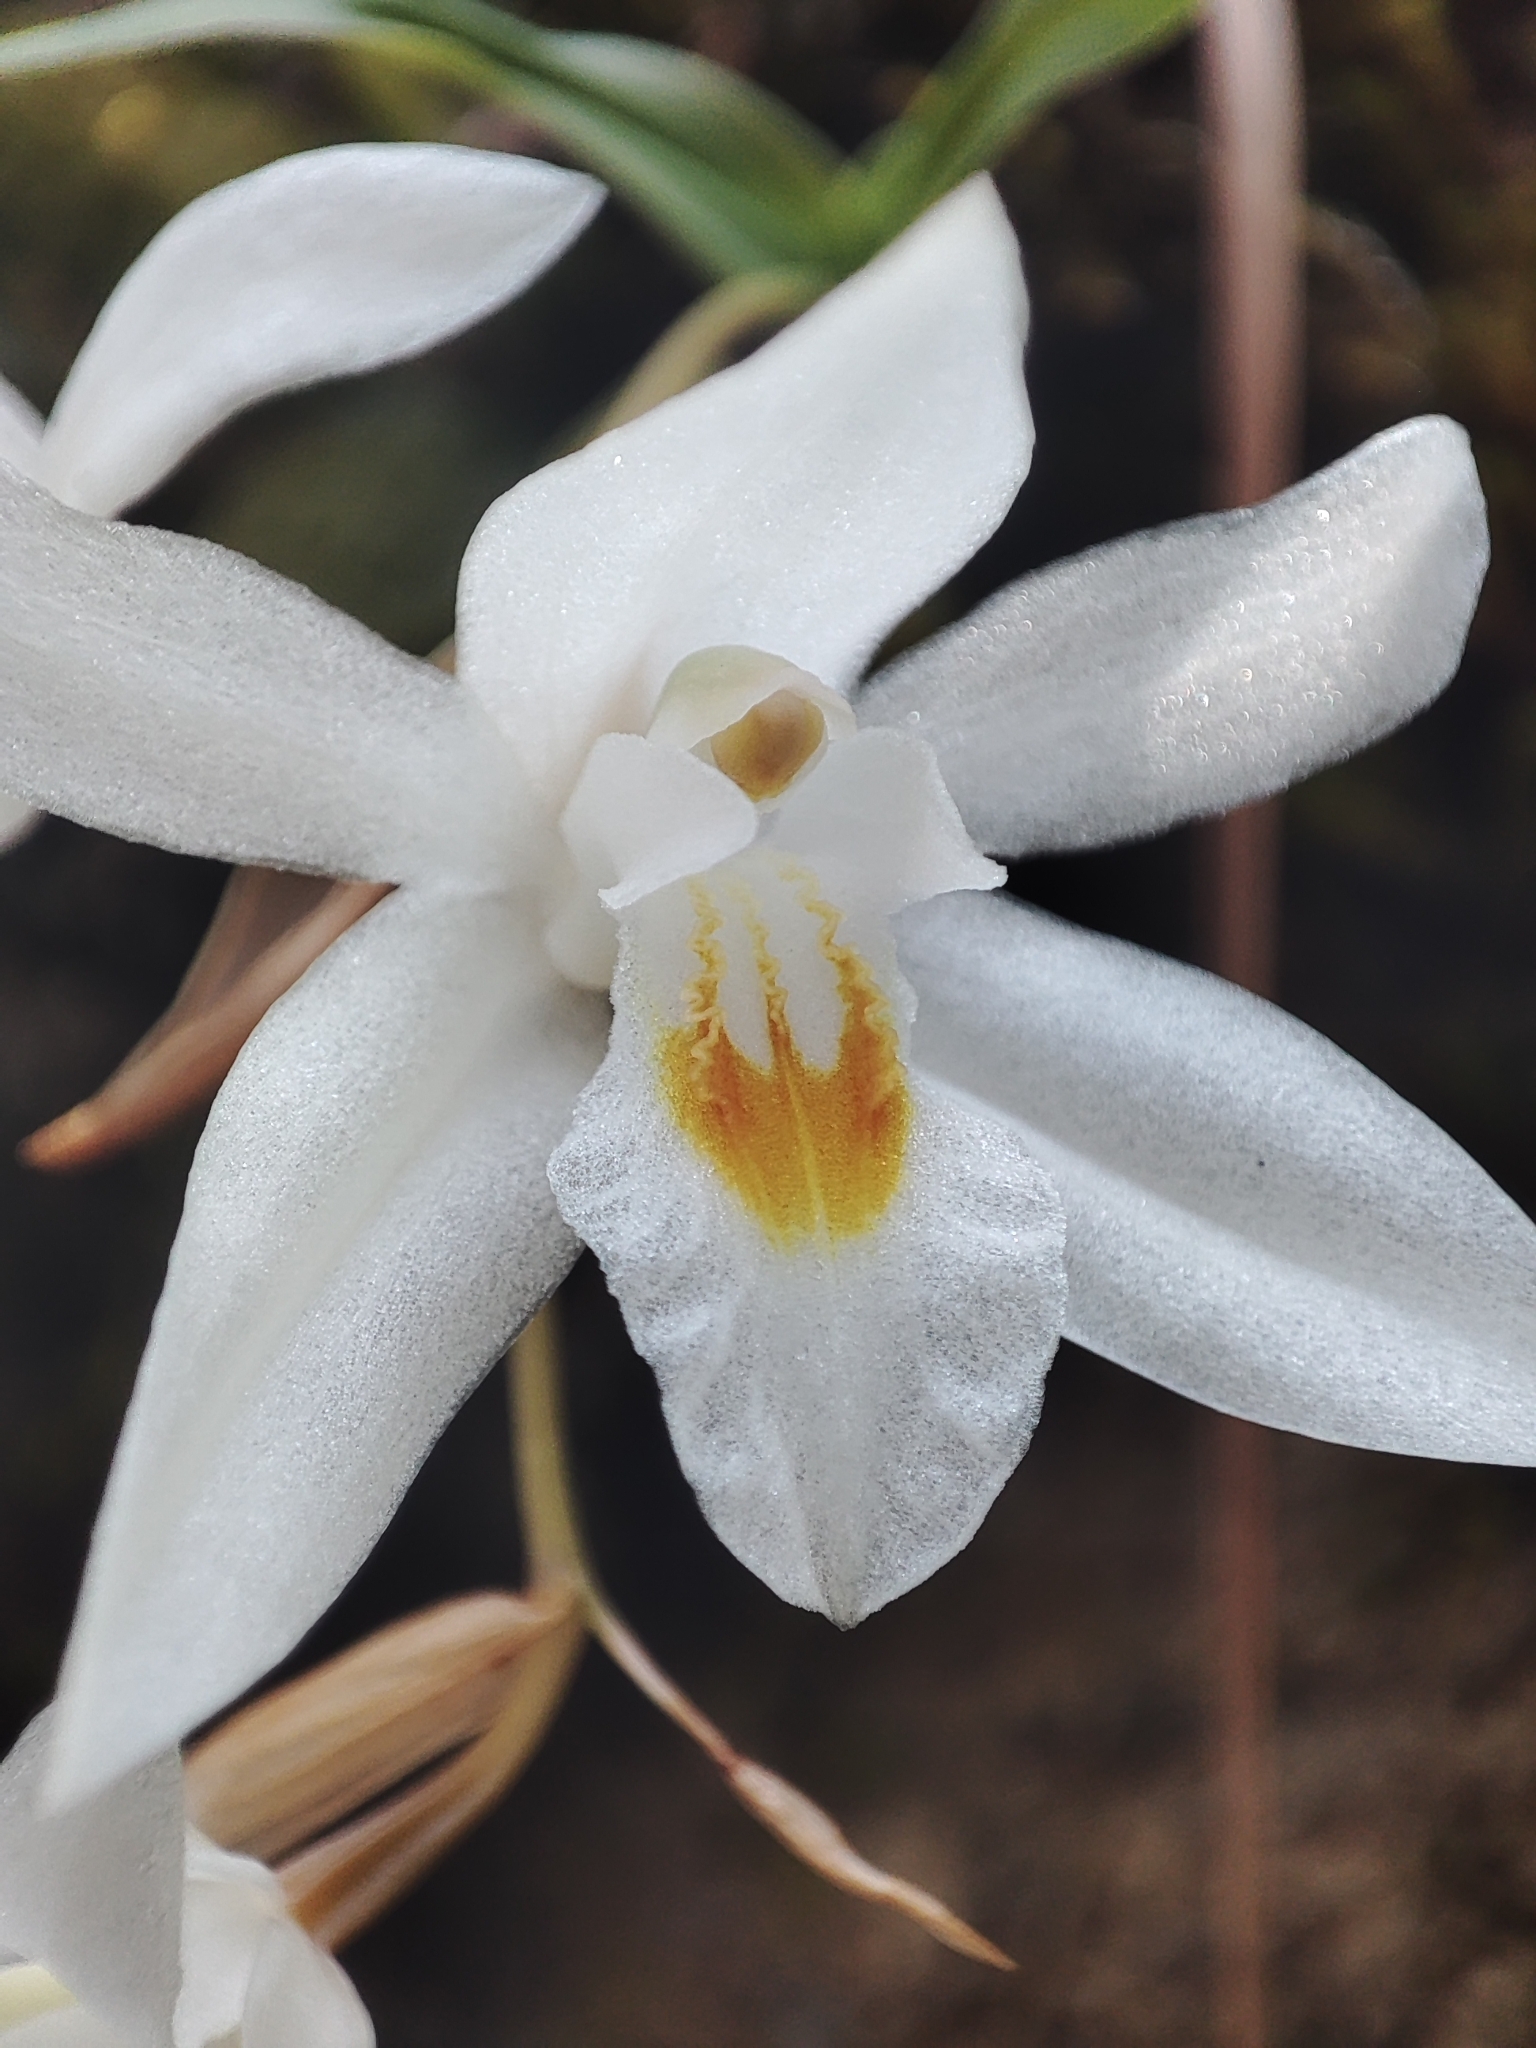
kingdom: Plantae
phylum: Tracheophyta
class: Liliopsida
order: Asparagales
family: Orchidaceae
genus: Coelogyne
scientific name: Coelogyne nervosa
